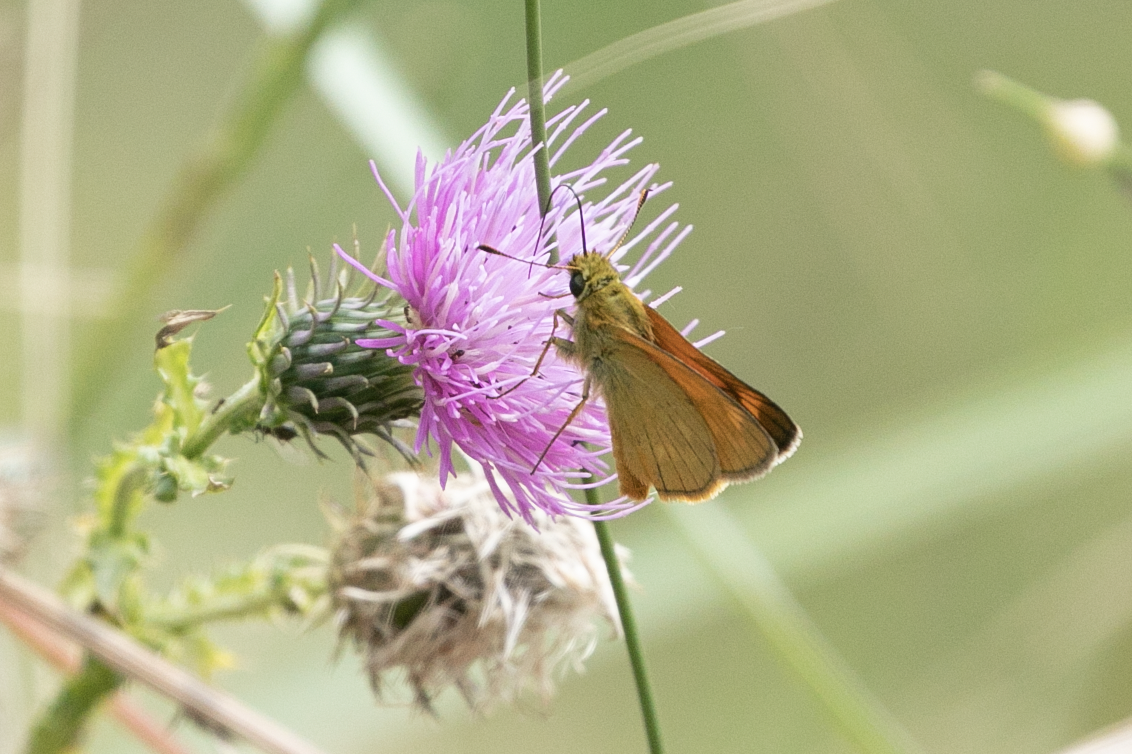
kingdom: Animalia
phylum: Arthropoda
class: Insecta
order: Lepidoptera
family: Hesperiidae
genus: Ochlodes
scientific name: Ochlodes venata
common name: Large skipper
